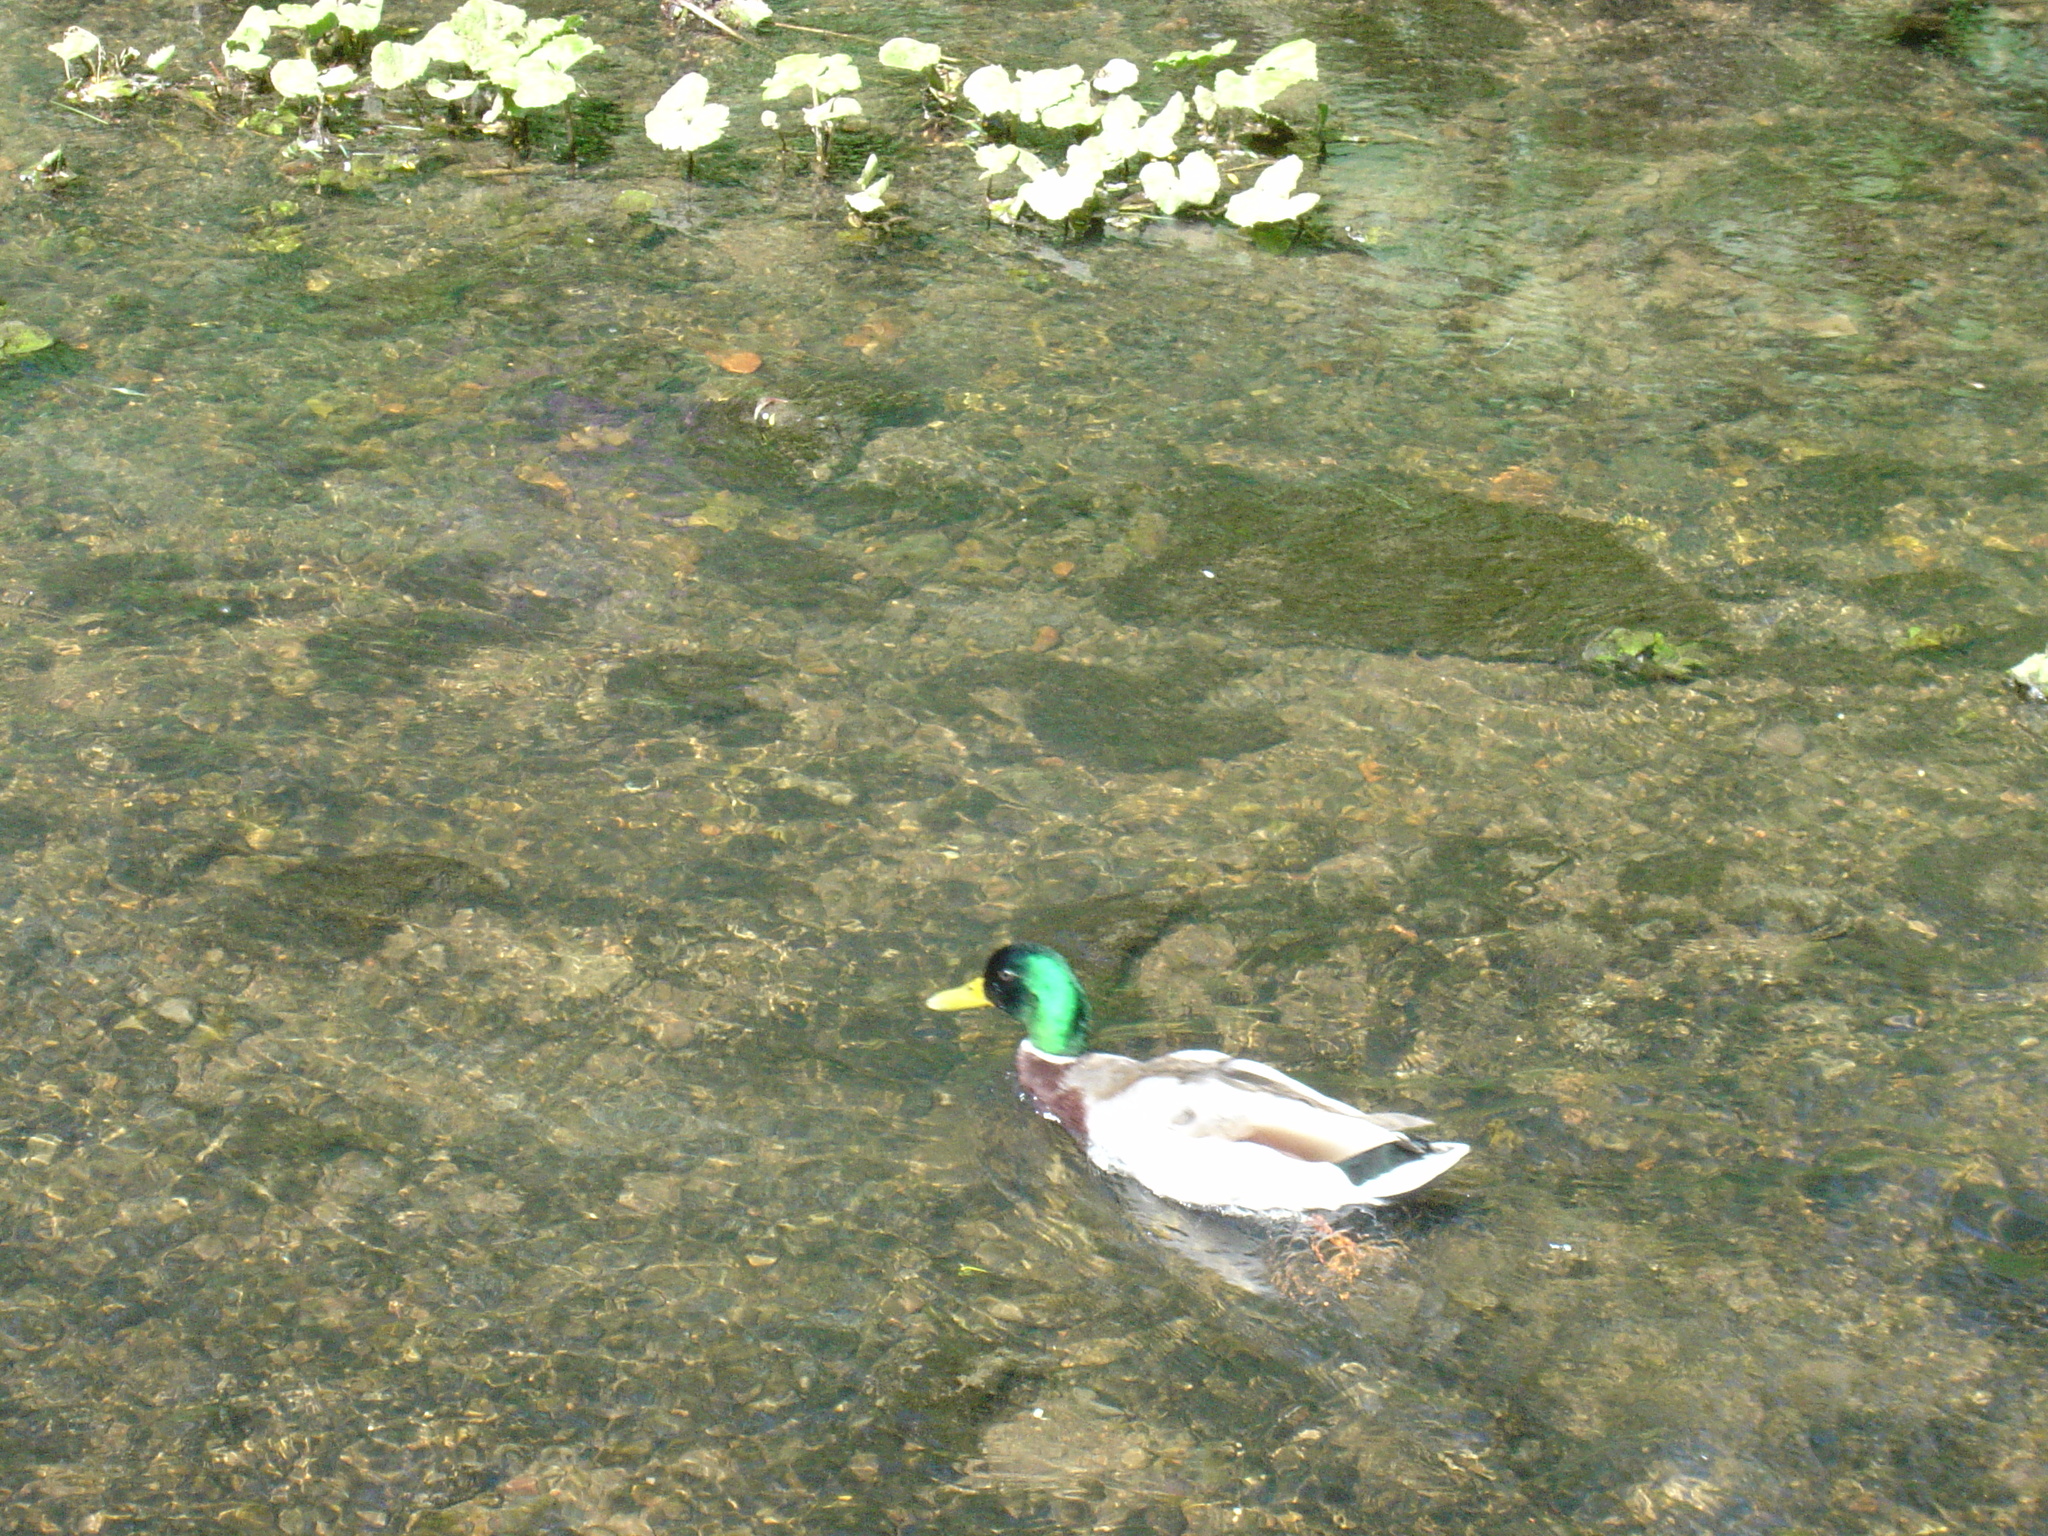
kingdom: Animalia
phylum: Chordata
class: Aves
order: Anseriformes
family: Anatidae
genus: Anas
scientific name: Anas platyrhynchos
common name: Mallard
